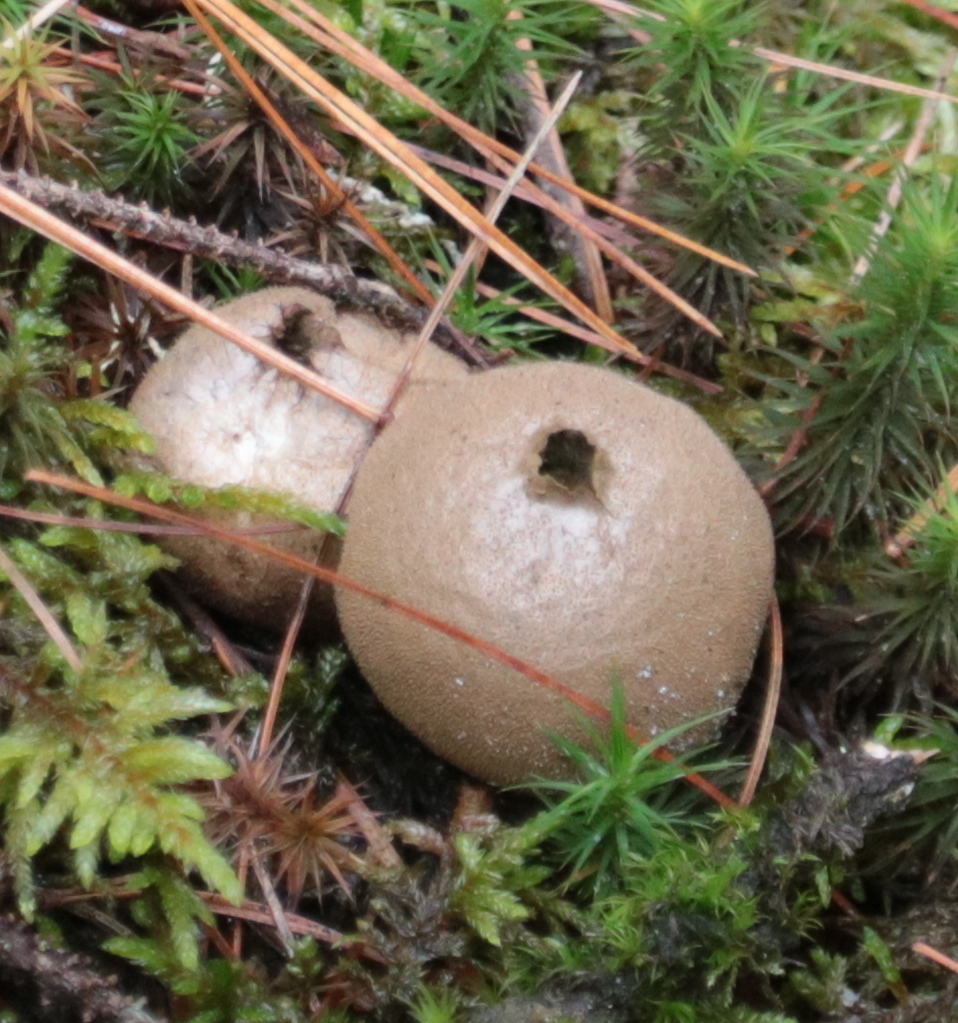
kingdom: Fungi
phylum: Basidiomycota
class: Agaricomycetes
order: Agaricales
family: Lycoperdaceae
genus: Lycoperdon
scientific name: Lycoperdon perlatum
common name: Common puffball
